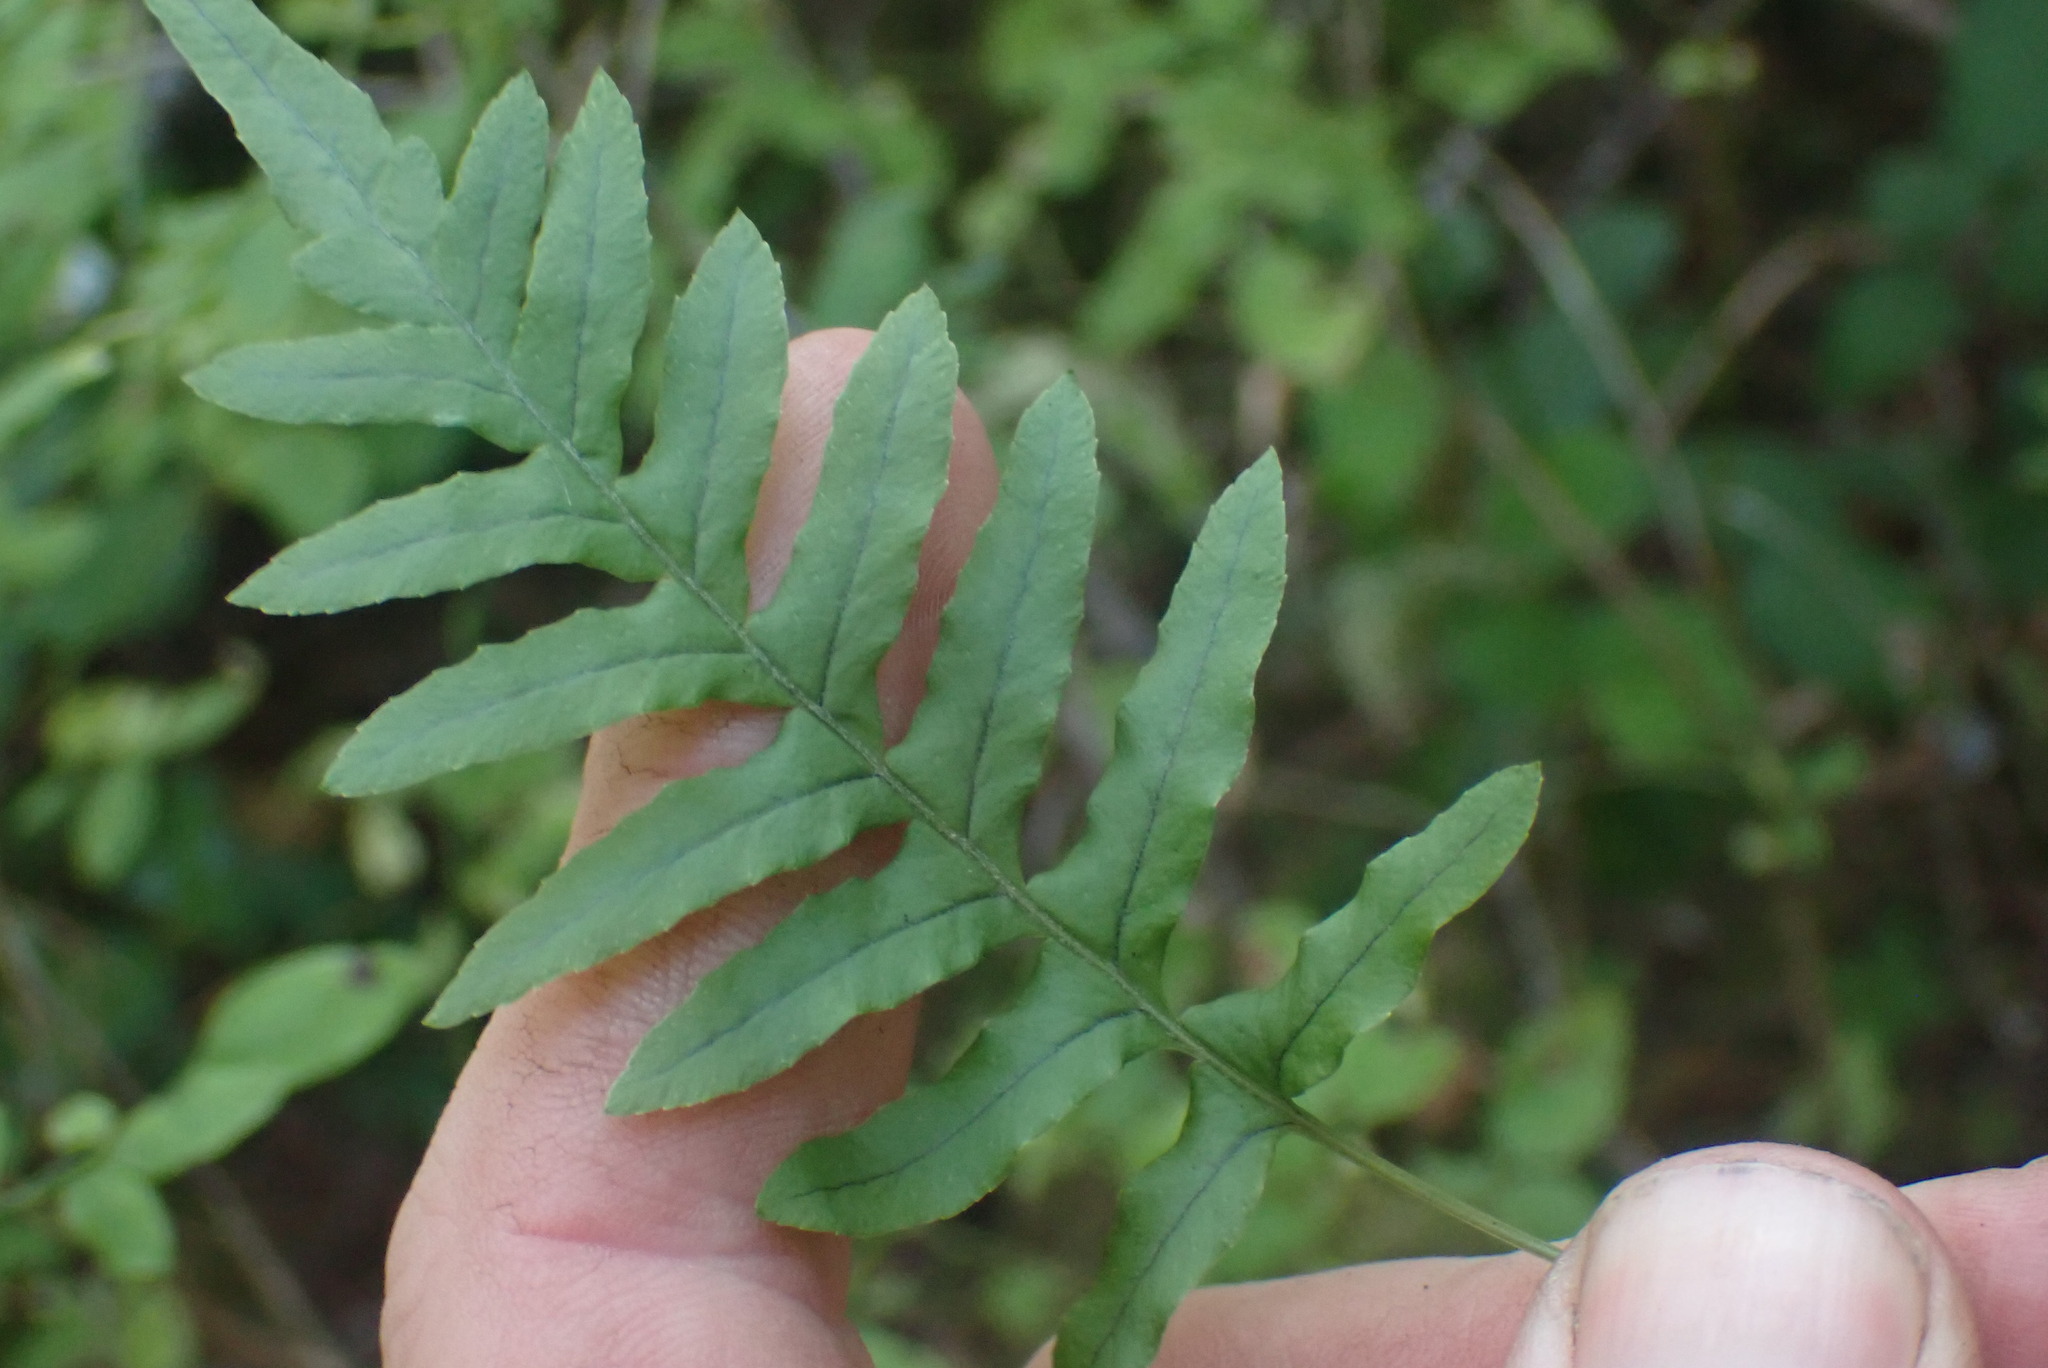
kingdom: Plantae
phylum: Tracheophyta
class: Polypodiopsida
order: Polypodiales
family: Polypodiaceae
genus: Polypodium
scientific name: Polypodium glycyrrhiza
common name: Licorice fern
